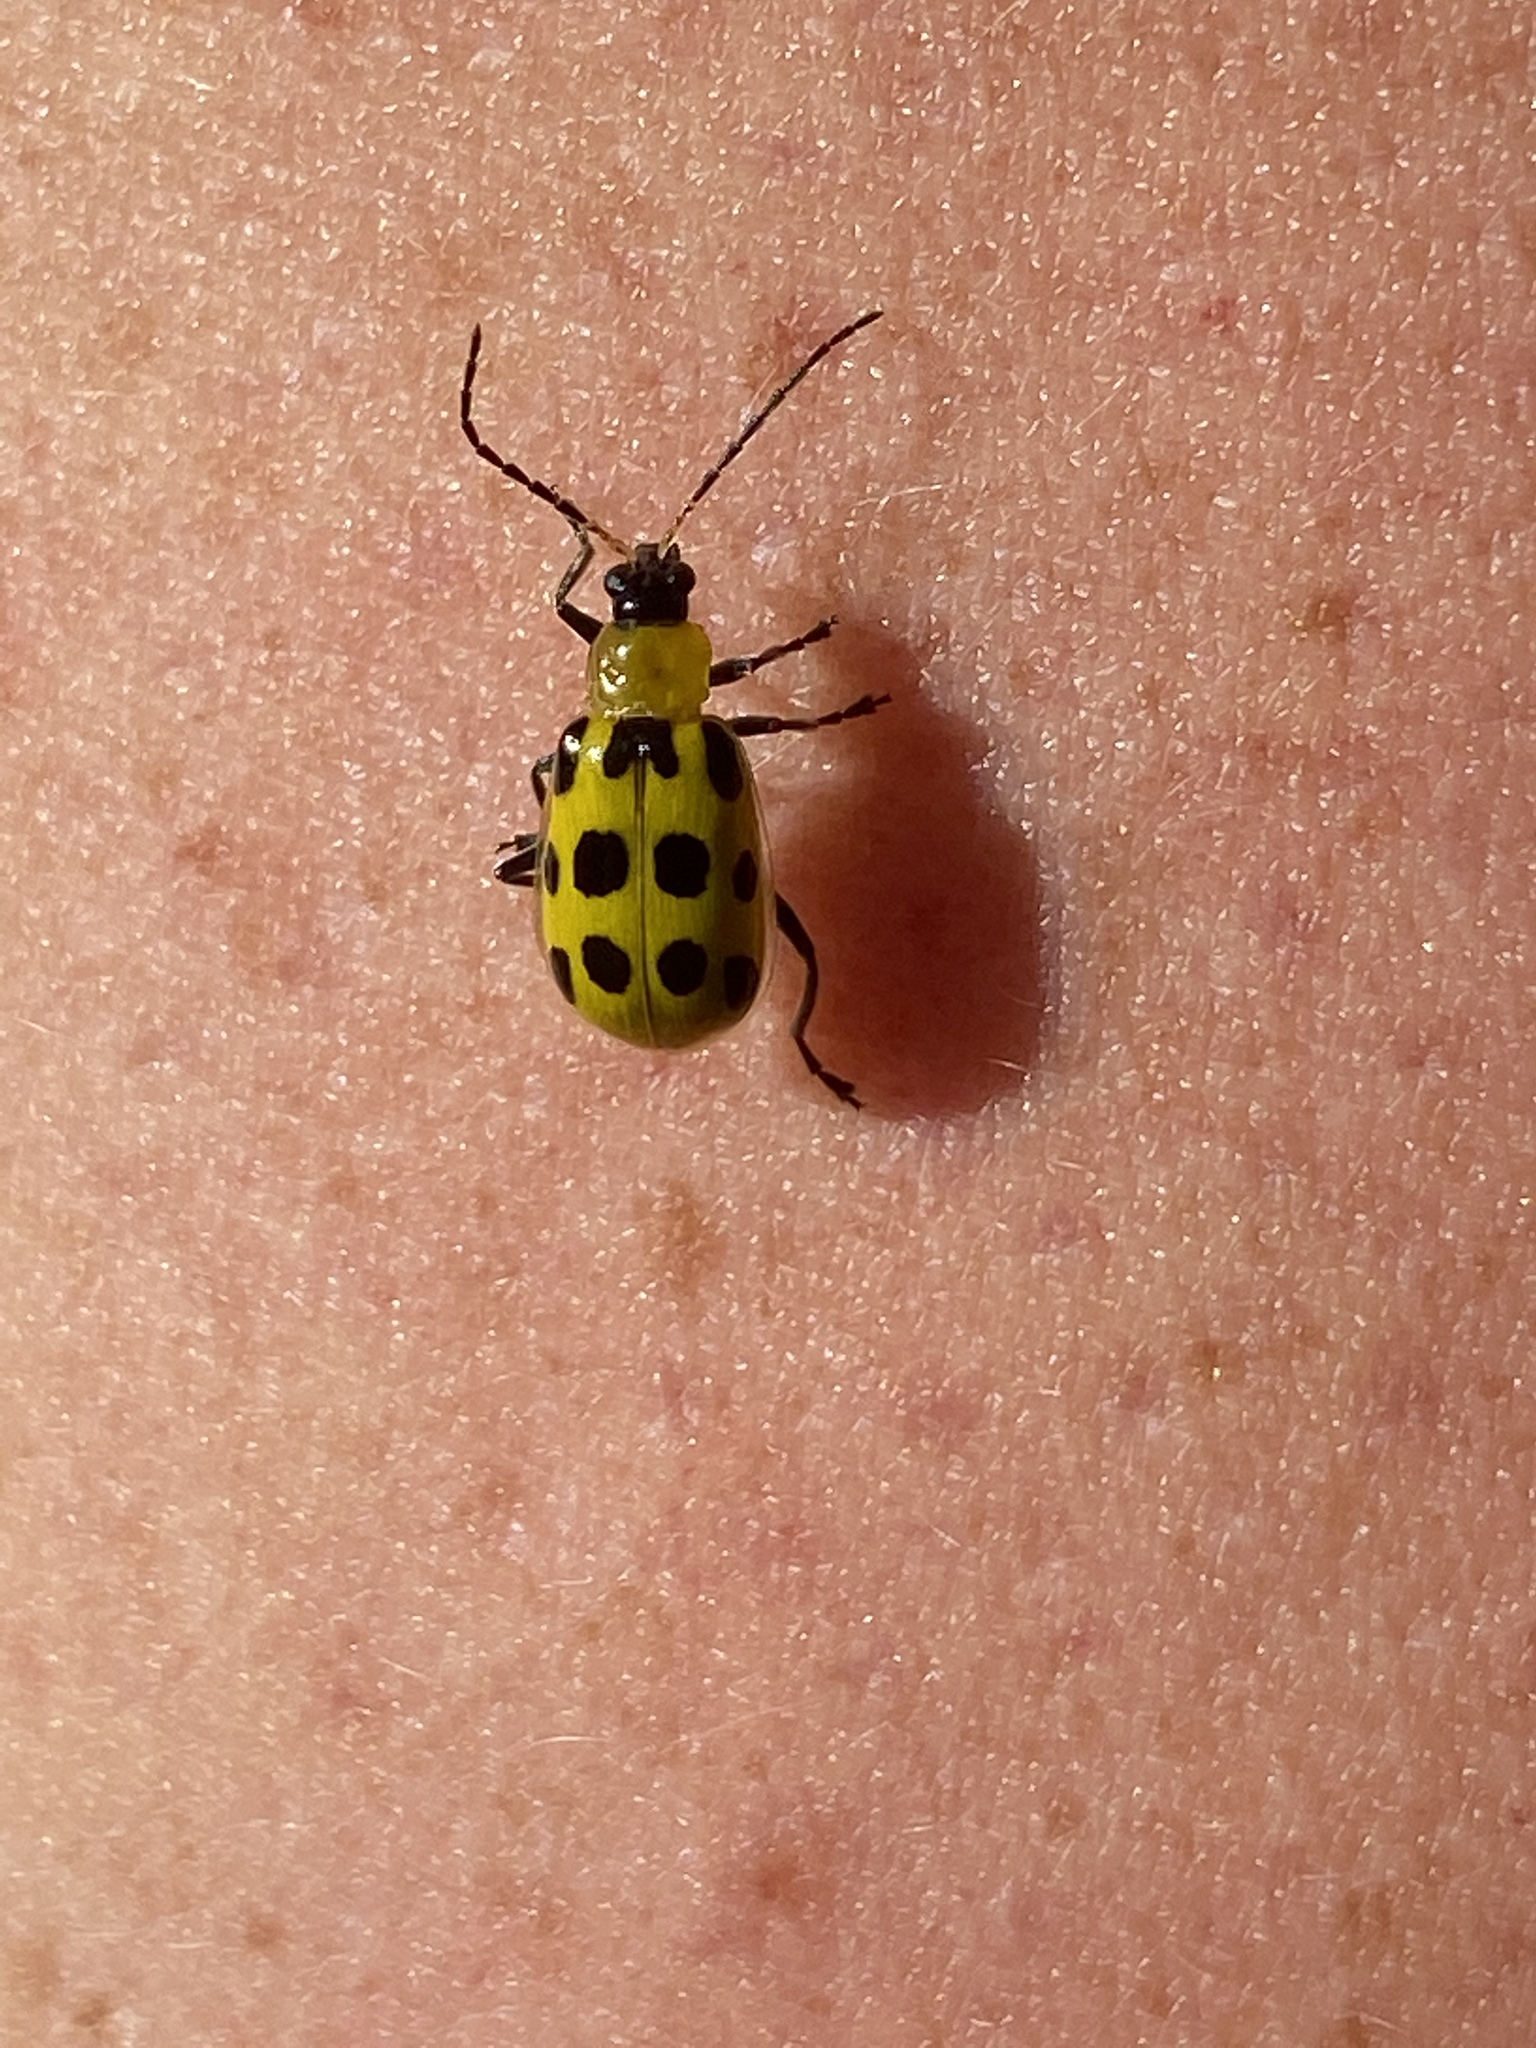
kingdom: Animalia
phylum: Arthropoda
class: Insecta
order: Coleoptera
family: Chrysomelidae
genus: Diabrotica
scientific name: Diabrotica undecimpunctata
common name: Spotted cucumber beetle
